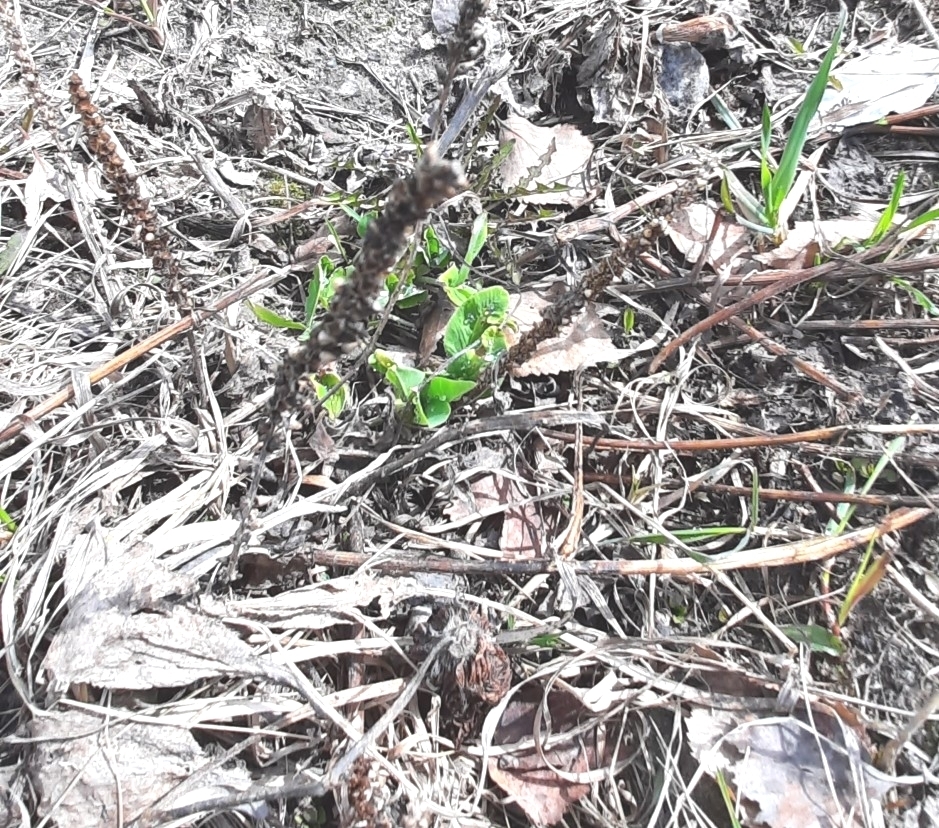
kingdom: Plantae
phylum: Tracheophyta
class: Magnoliopsida
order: Lamiales
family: Plantaginaceae
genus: Plantago
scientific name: Plantago major
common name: Common plantain
